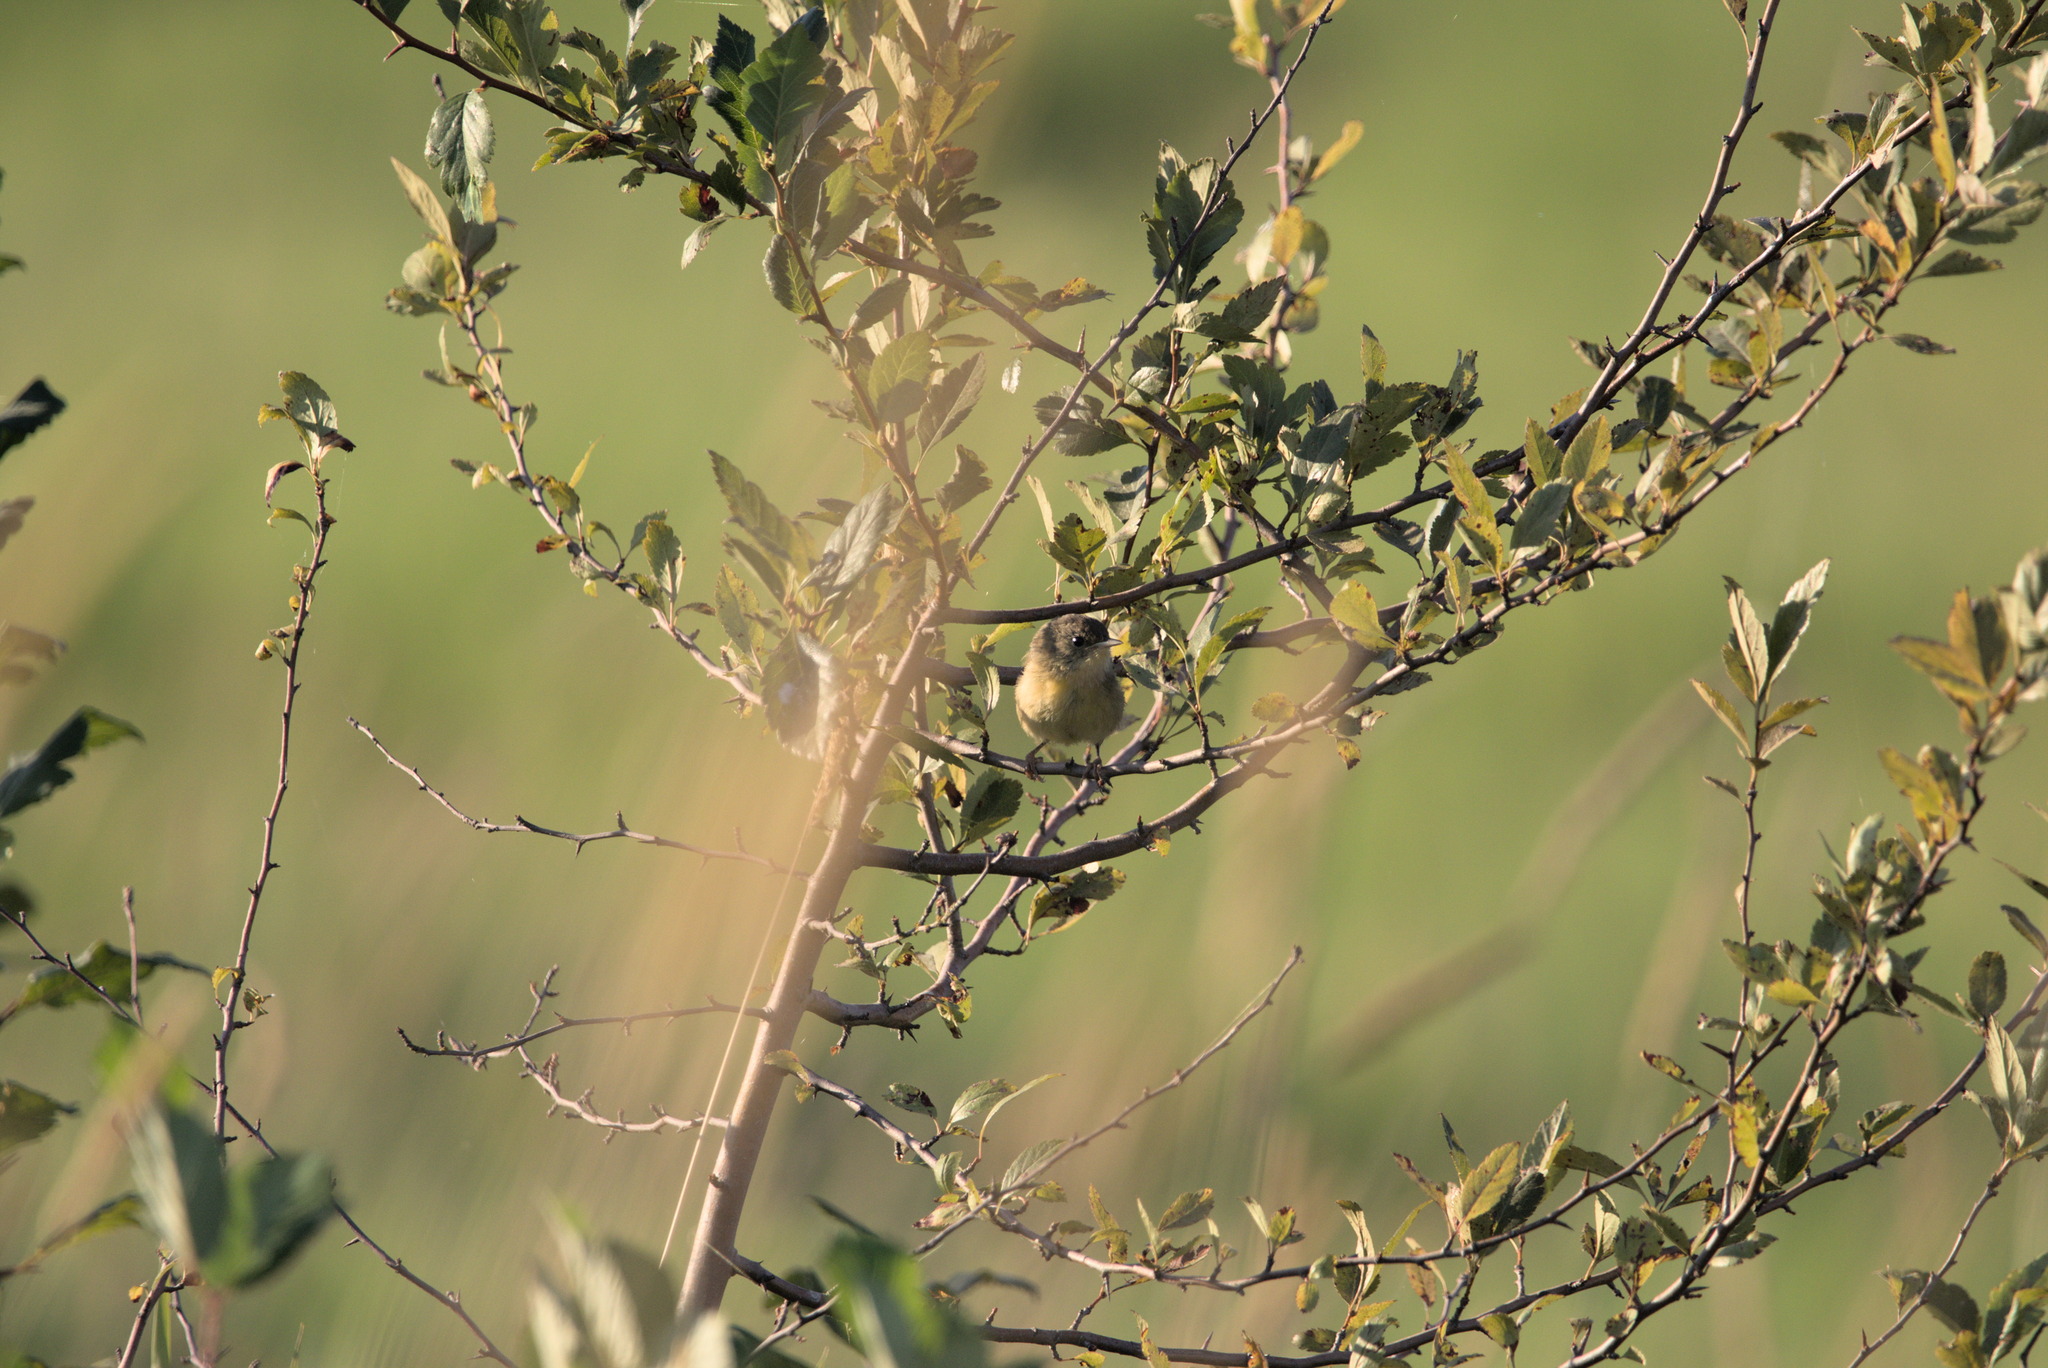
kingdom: Animalia
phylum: Chordata
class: Aves
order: Passeriformes
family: Parulidae
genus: Geothlypis
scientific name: Geothlypis trichas
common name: Common yellowthroat
